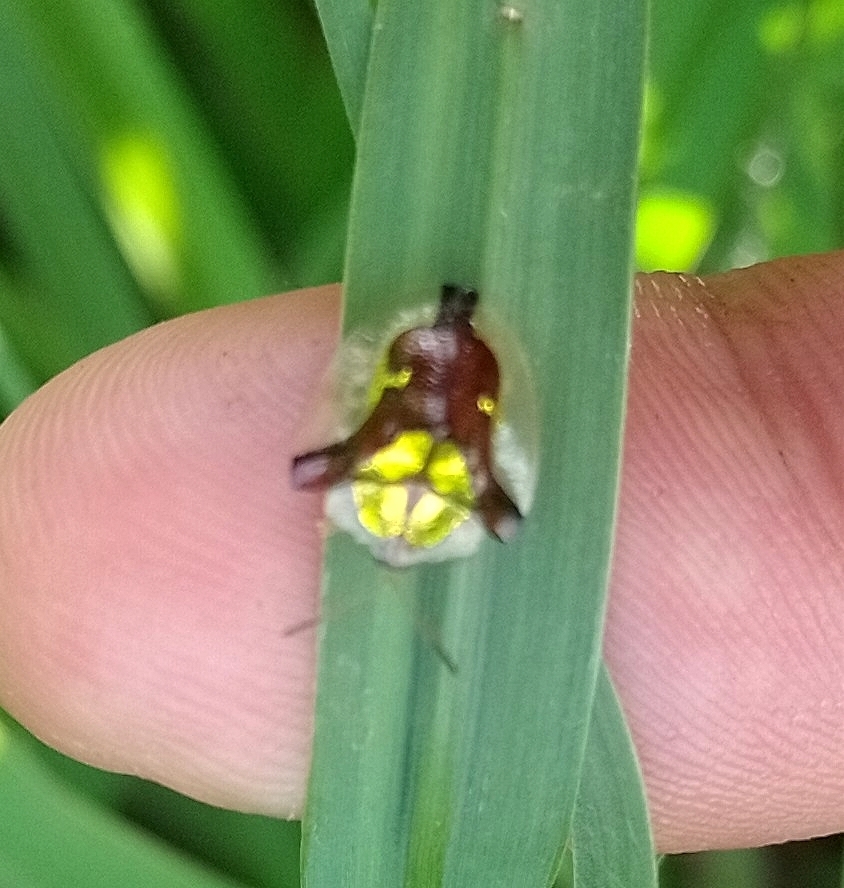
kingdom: Animalia
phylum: Arthropoda
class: Insecta
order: Coleoptera
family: Chrysomelidae
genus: Deloyala
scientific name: Deloyala cruciata
